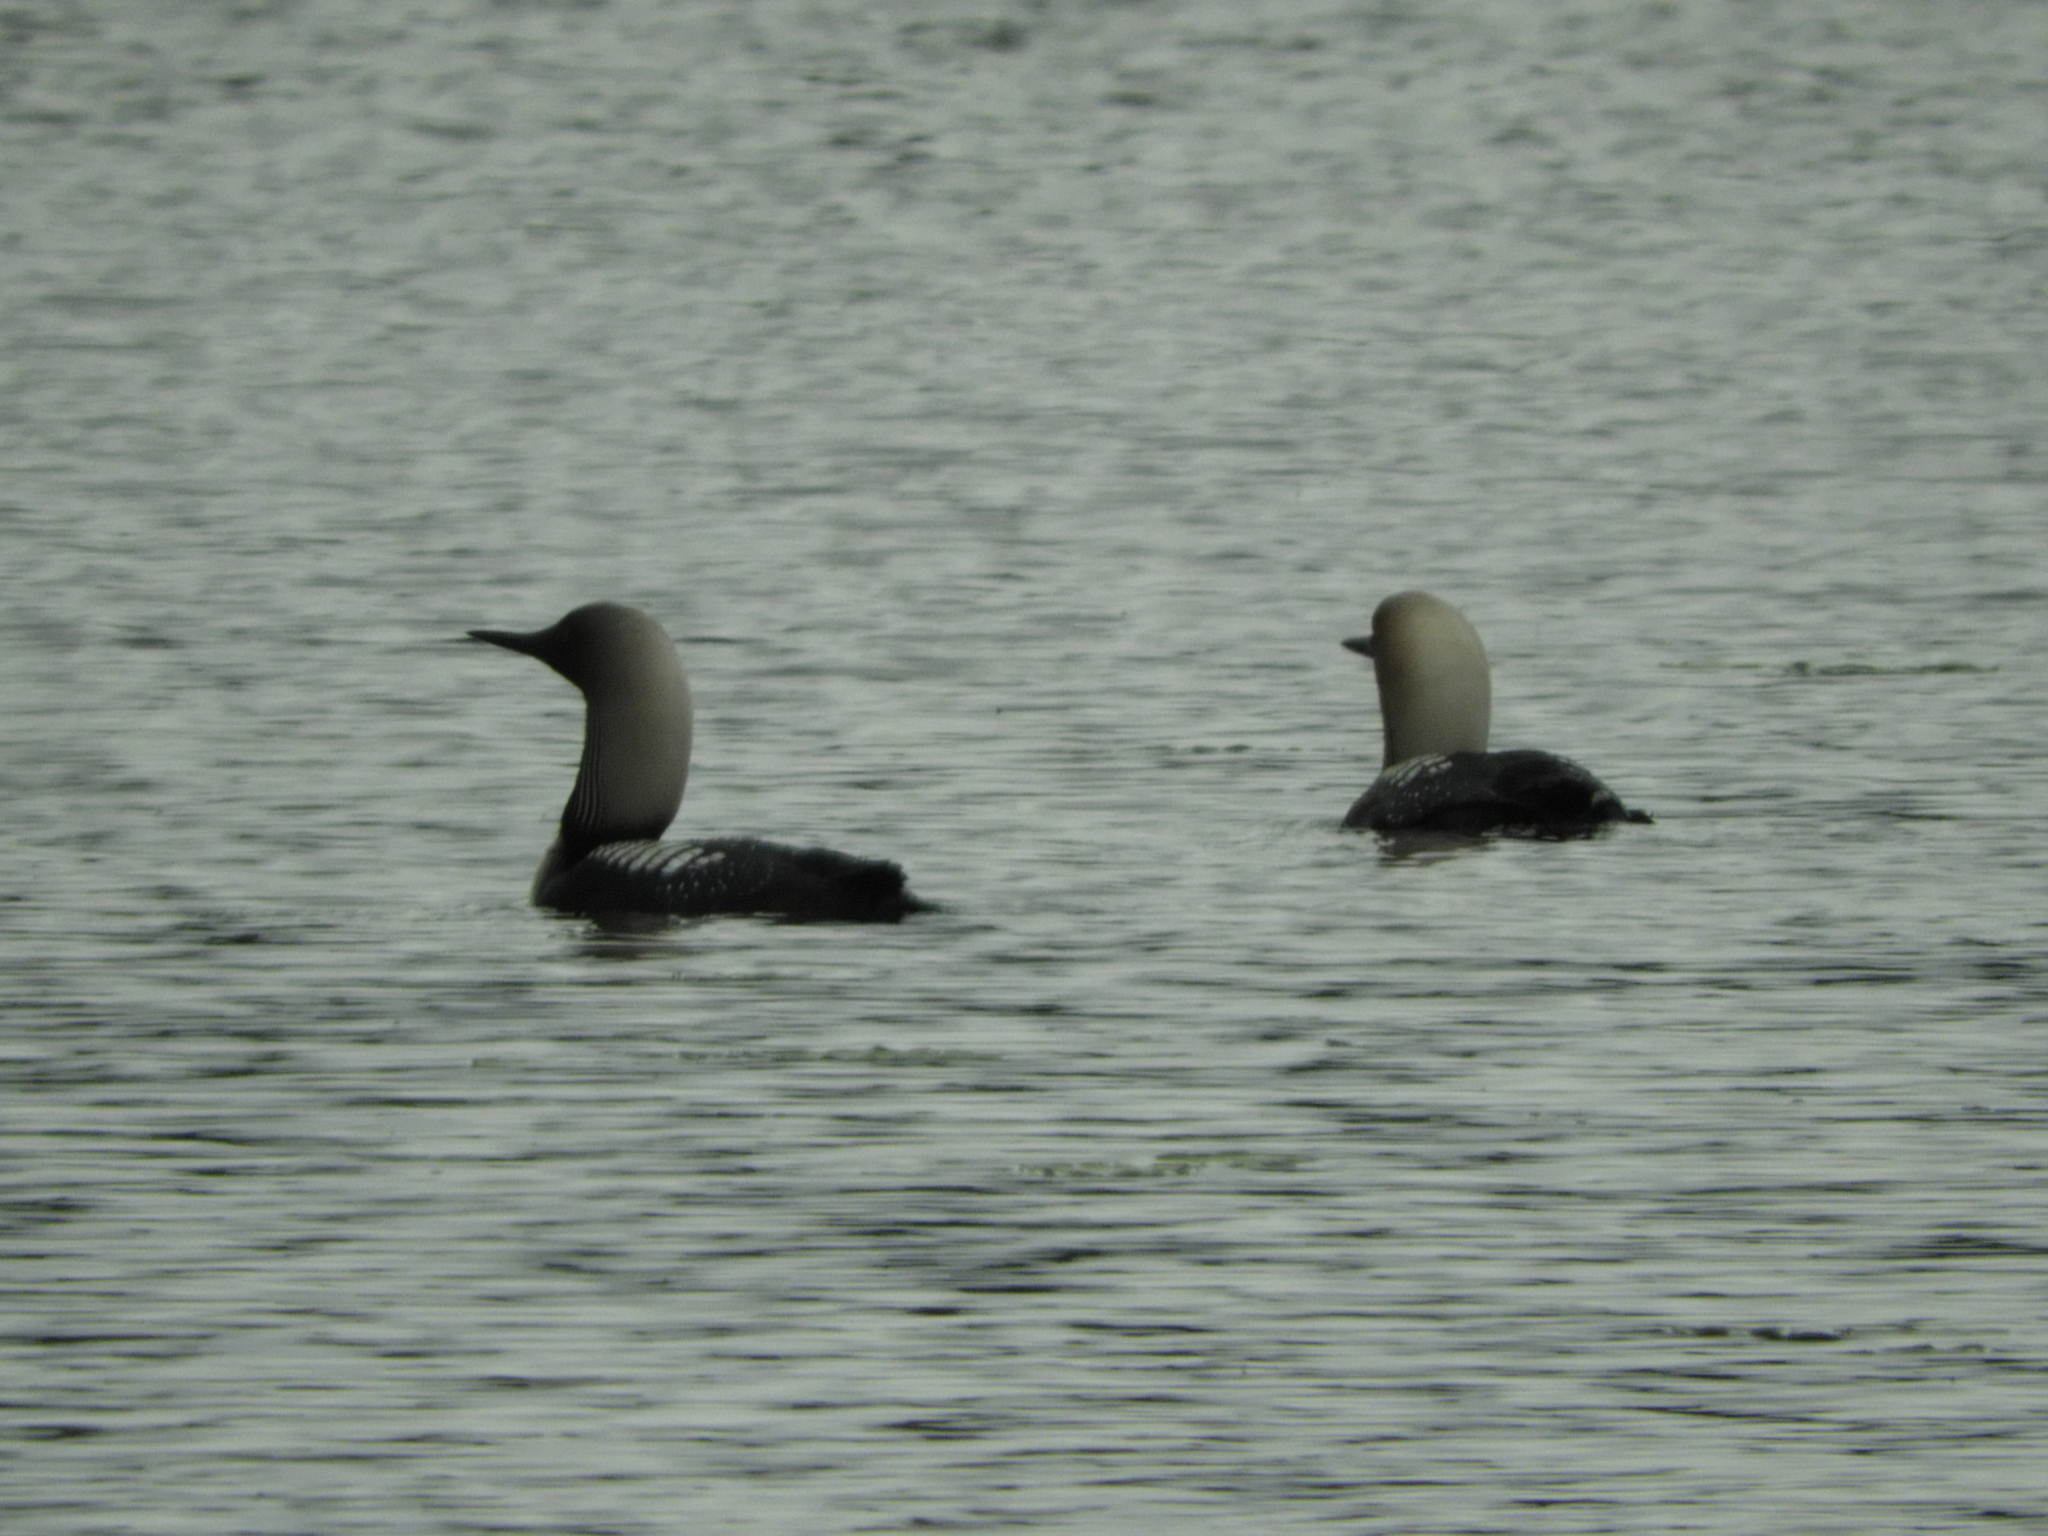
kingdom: Animalia
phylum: Chordata
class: Aves
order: Gaviiformes
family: Gaviidae
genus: Gavia
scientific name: Gavia pacifica
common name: Pacific loon
